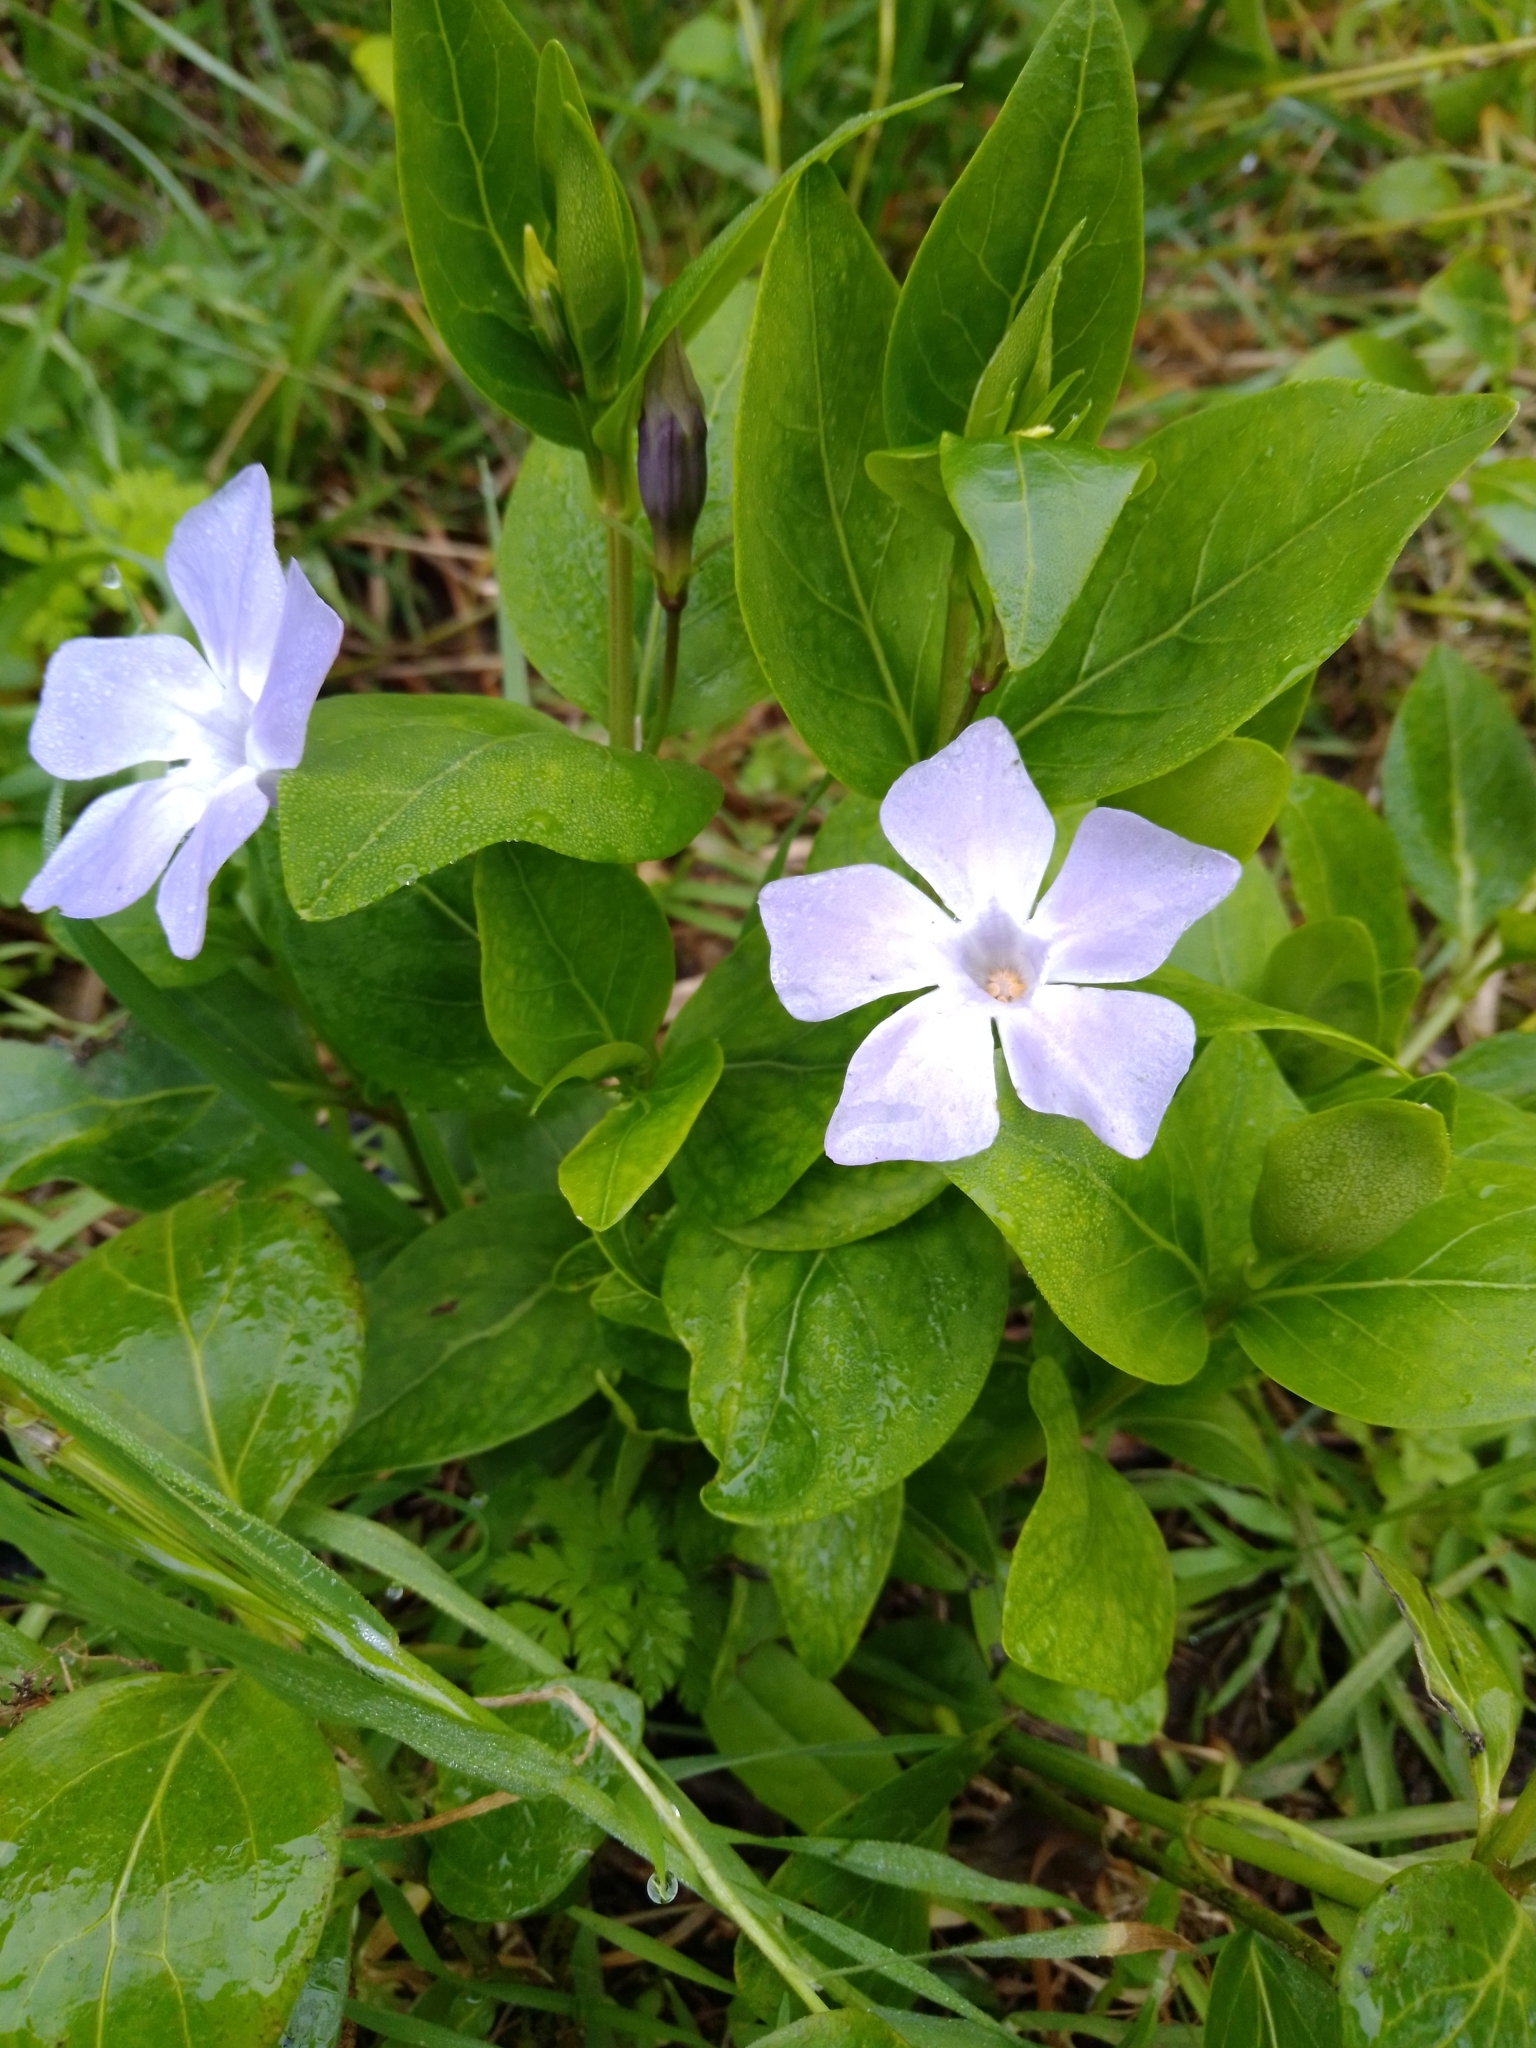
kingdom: Plantae
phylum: Tracheophyta
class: Magnoliopsida
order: Gentianales
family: Apocynaceae
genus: Vinca
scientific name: Vinca difformis
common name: Intermediate periwinkle
